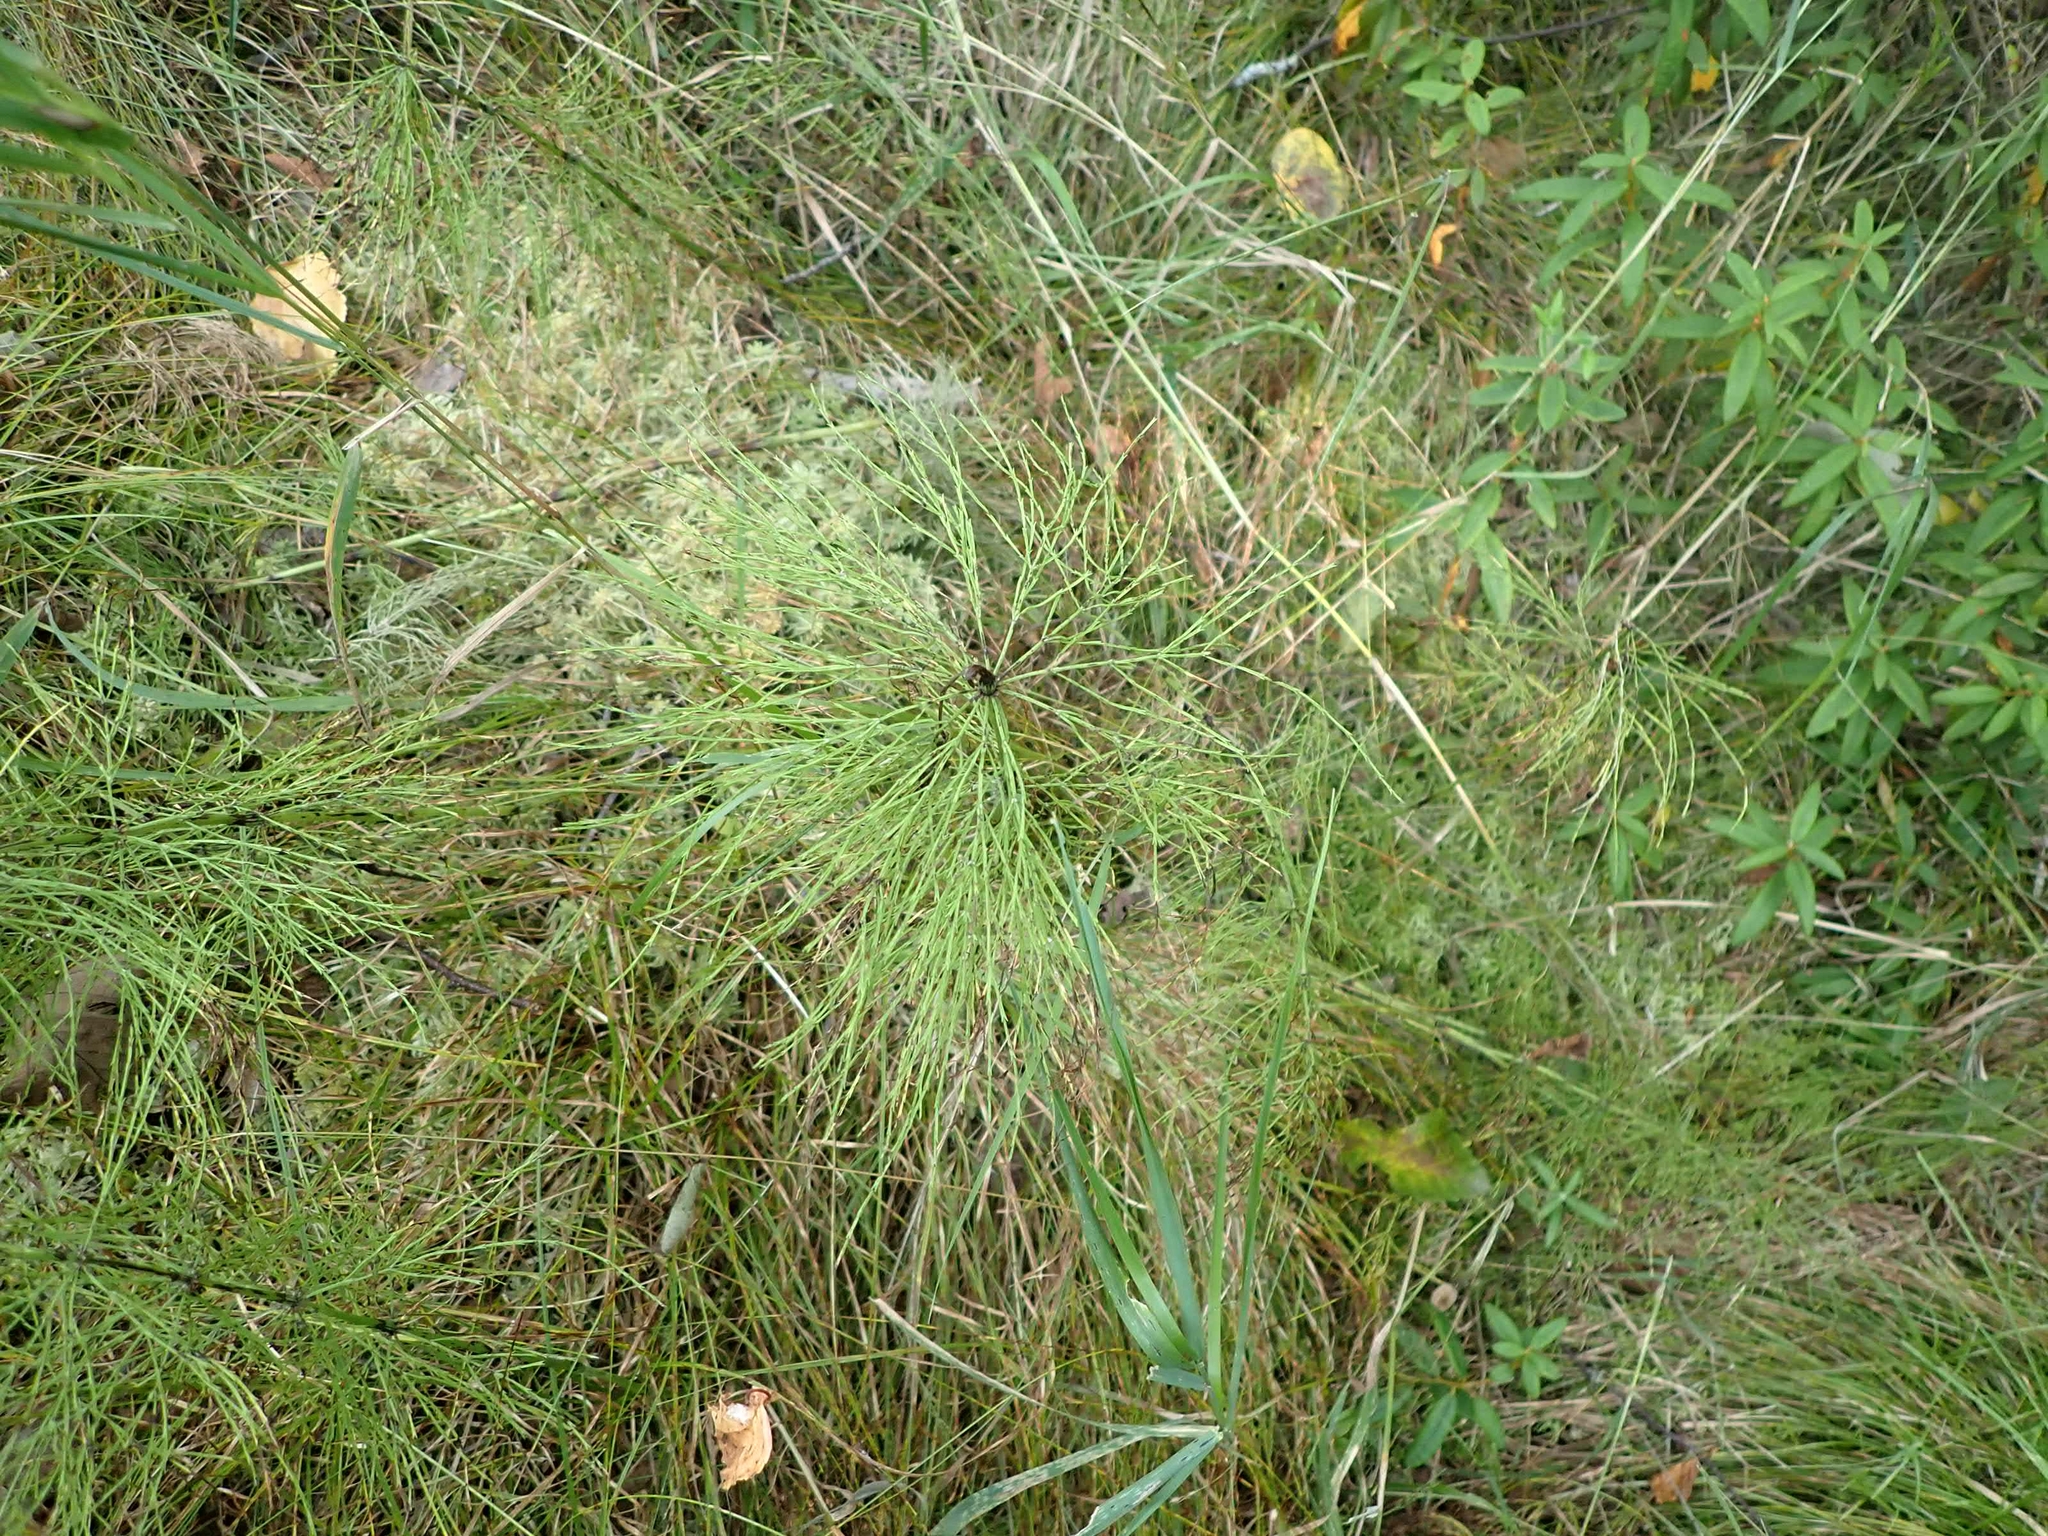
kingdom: Plantae
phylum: Tracheophyta
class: Polypodiopsida
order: Equisetales
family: Equisetaceae
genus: Equisetum
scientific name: Equisetum sylvaticum
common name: Wood horsetail
